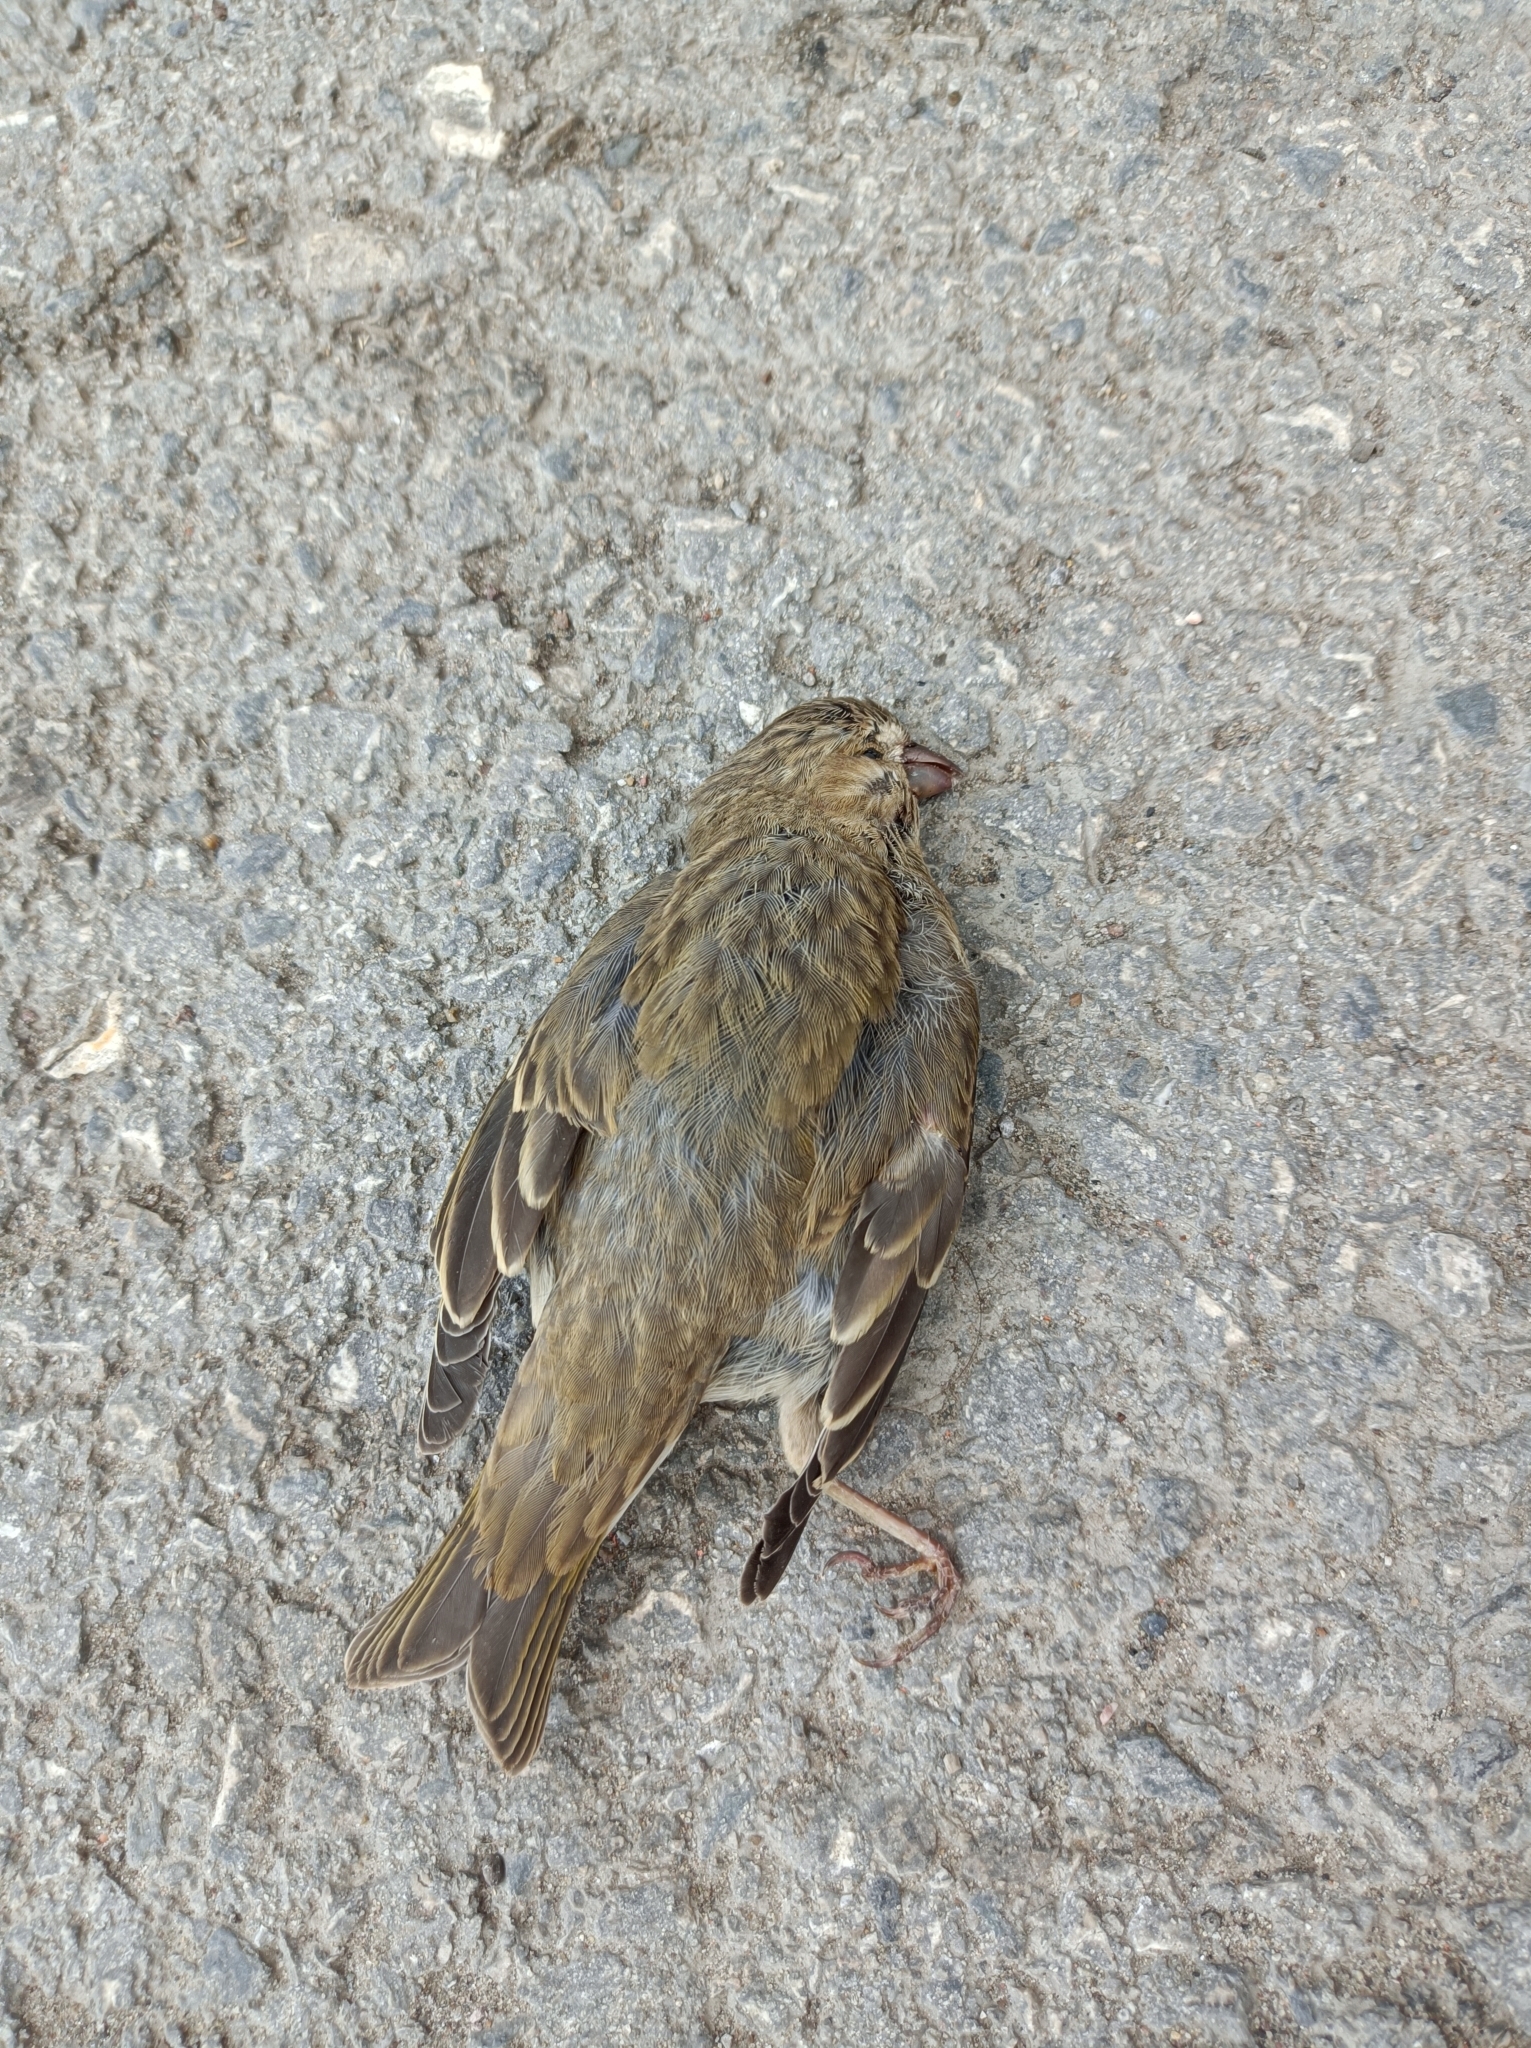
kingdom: Animalia
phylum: Chordata
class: Aves
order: Passeriformes
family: Fringillidae
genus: Carpodacus
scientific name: Carpodacus erythrinus
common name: Common rosefinch
